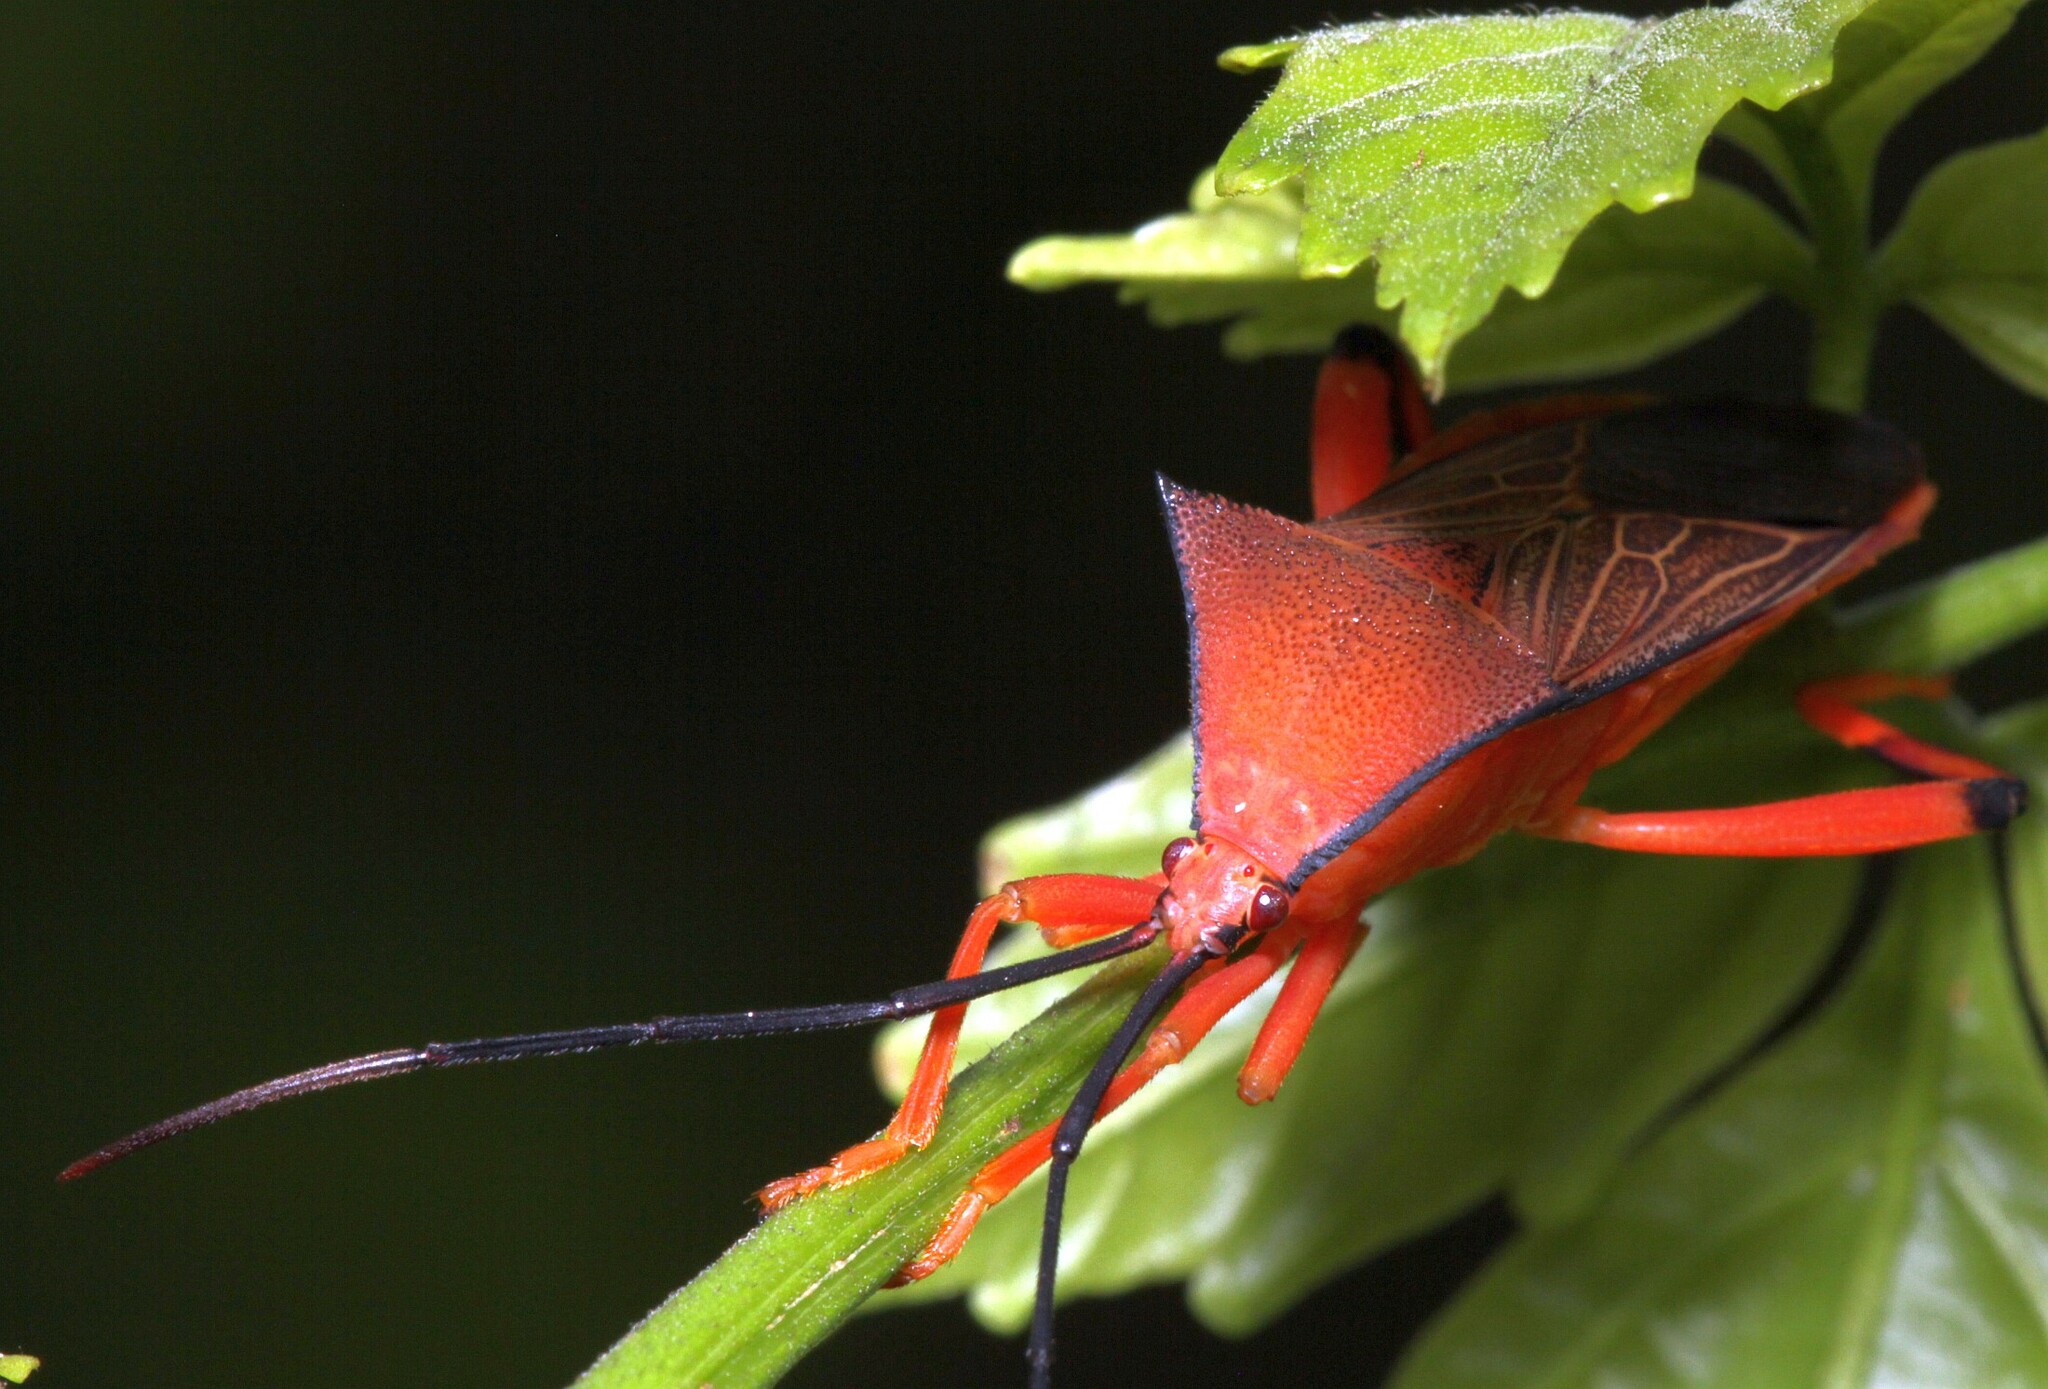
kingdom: Animalia
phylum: Arthropoda
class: Insecta
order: Hemiptera
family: Coreidae
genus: Melucha
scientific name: Melucha acutispina
